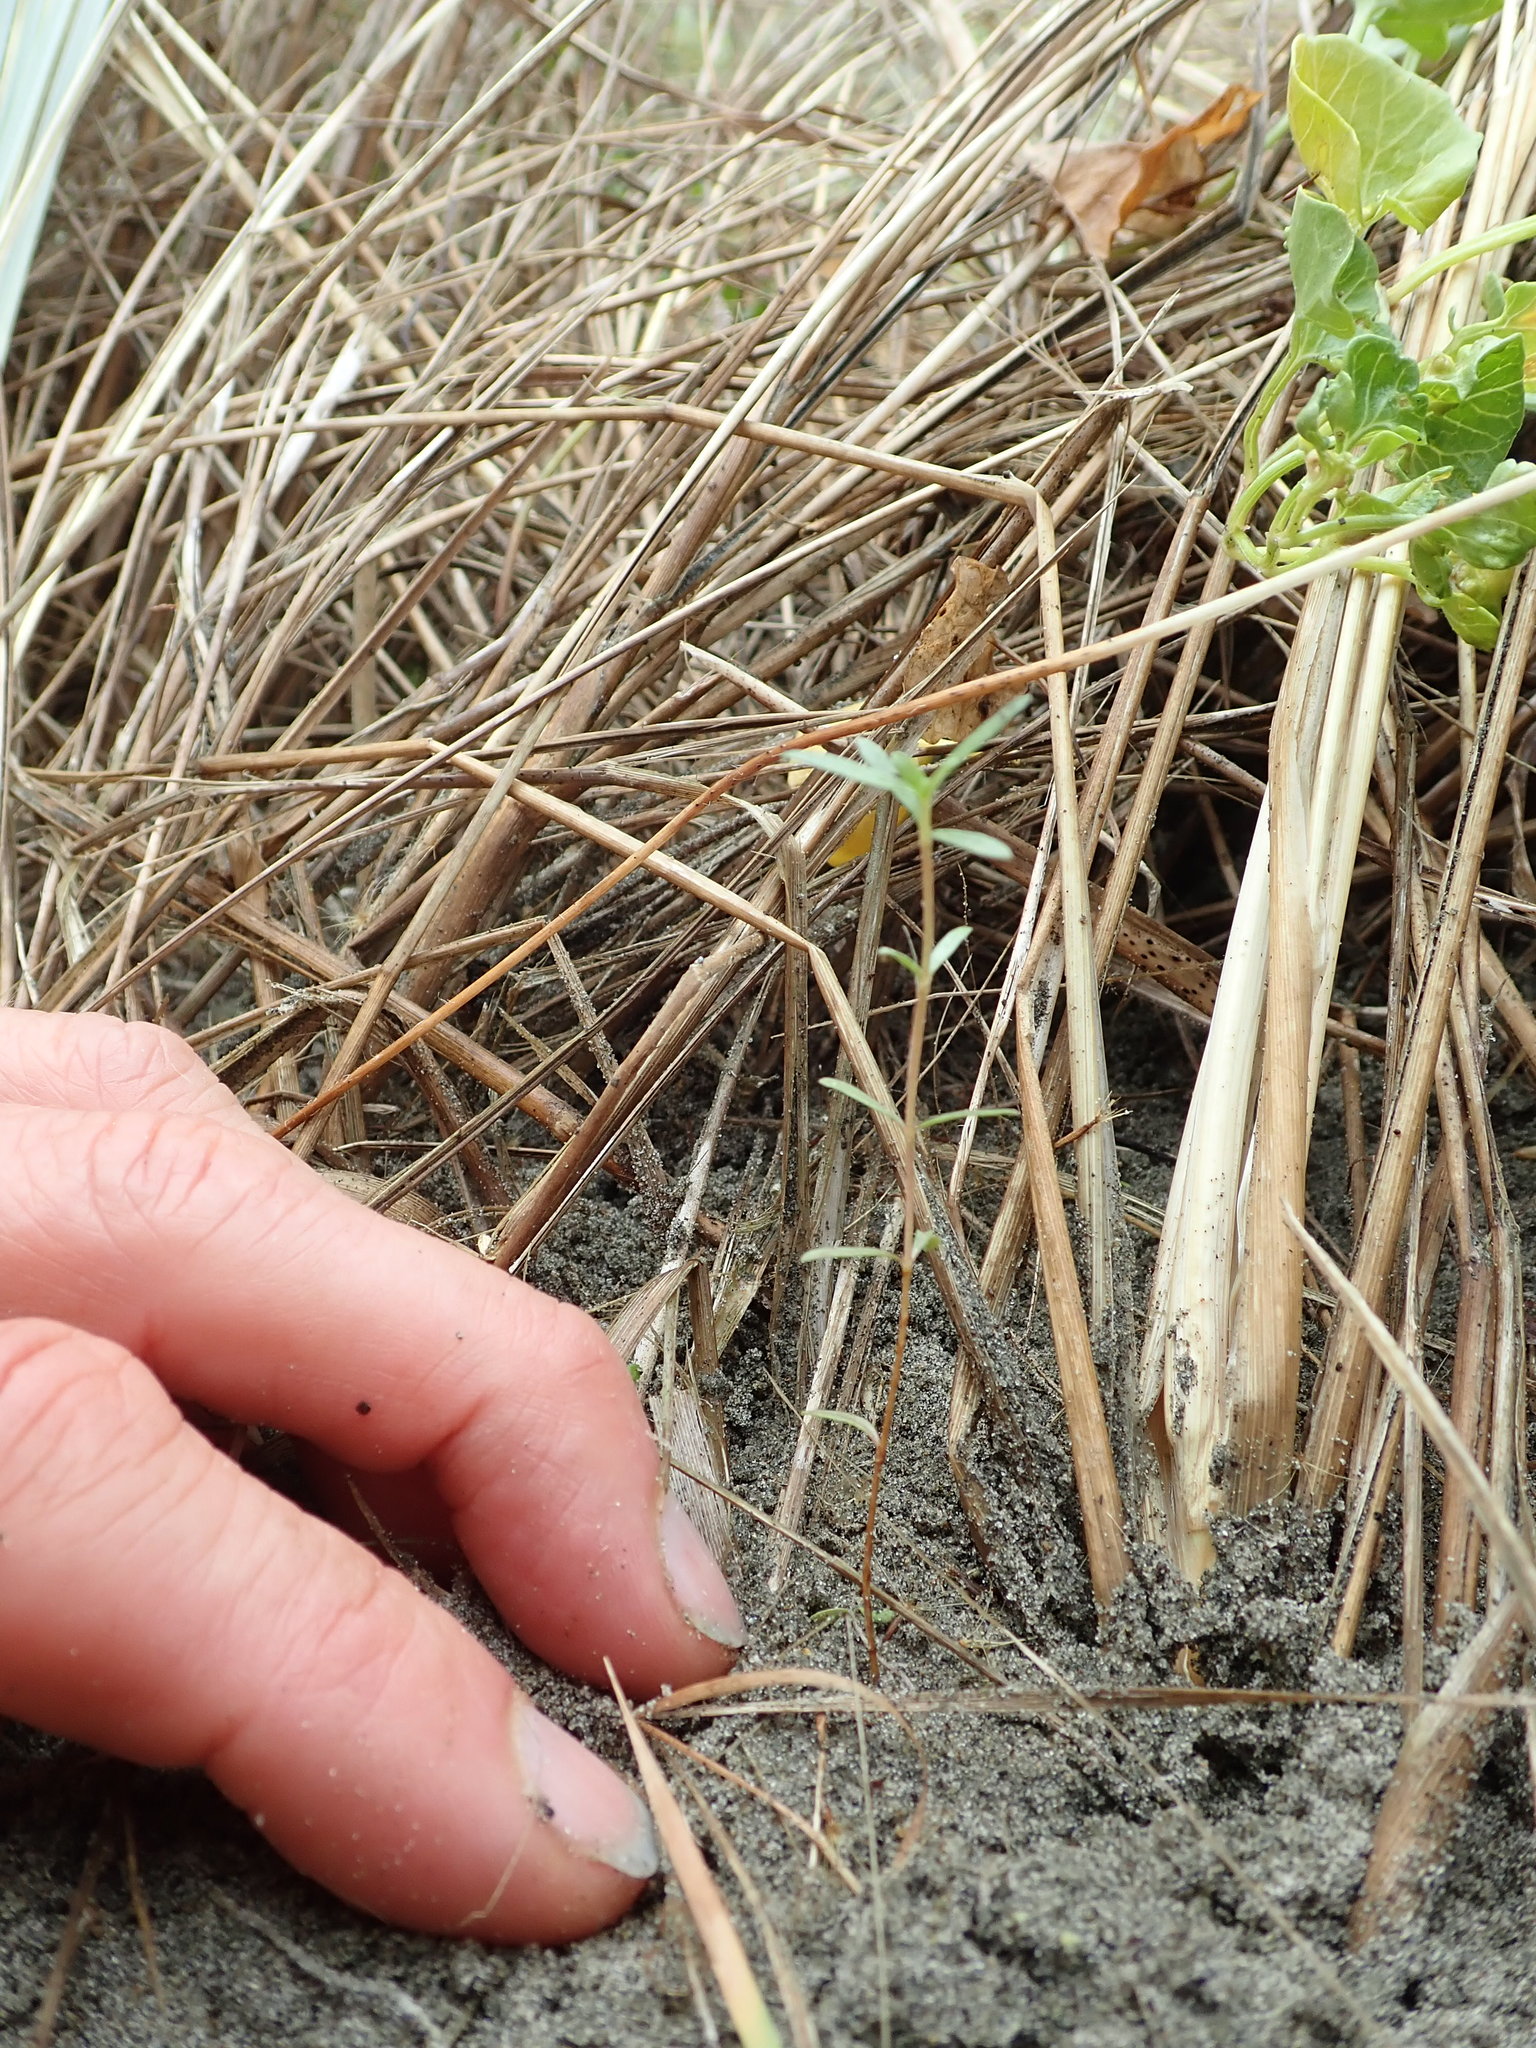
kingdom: Plantae
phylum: Tracheophyta
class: Magnoliopsida
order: Gentianales
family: Rubiaceae
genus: Coprosma
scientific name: Coprosma acerosa
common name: Sand coprosma
